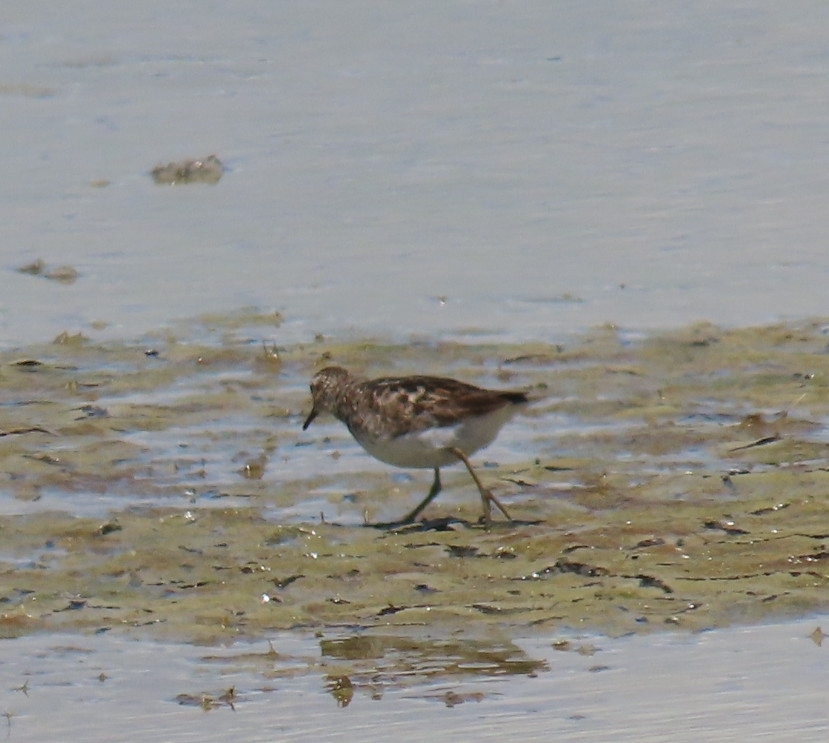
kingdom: Animalia
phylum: Chordata
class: Aves
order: Charadriiformes
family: Scolopacidae
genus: Calidris
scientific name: Calidris minutilla
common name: Least sandpiper
